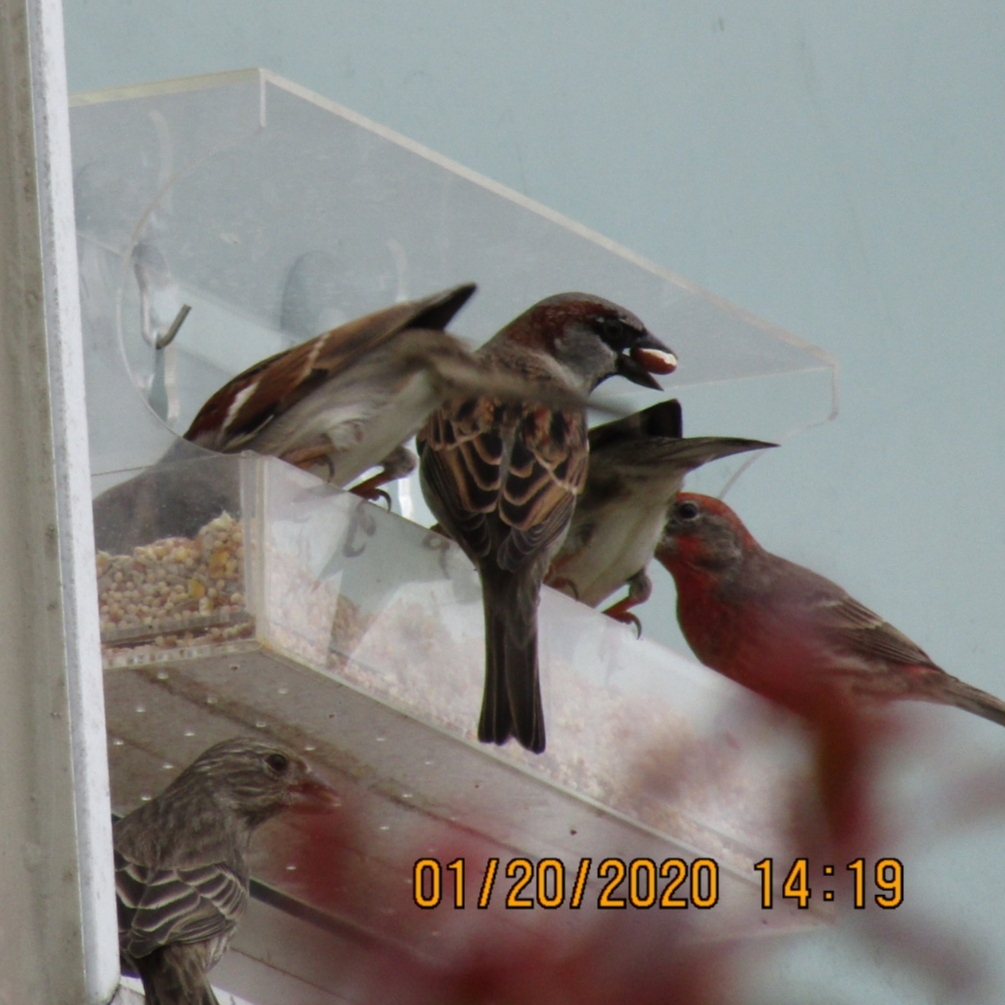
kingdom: Animalia
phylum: Chordata
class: Aves
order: Passeriformes
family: Passeridae
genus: Passer
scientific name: Passer domesticus
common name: House sparrow
